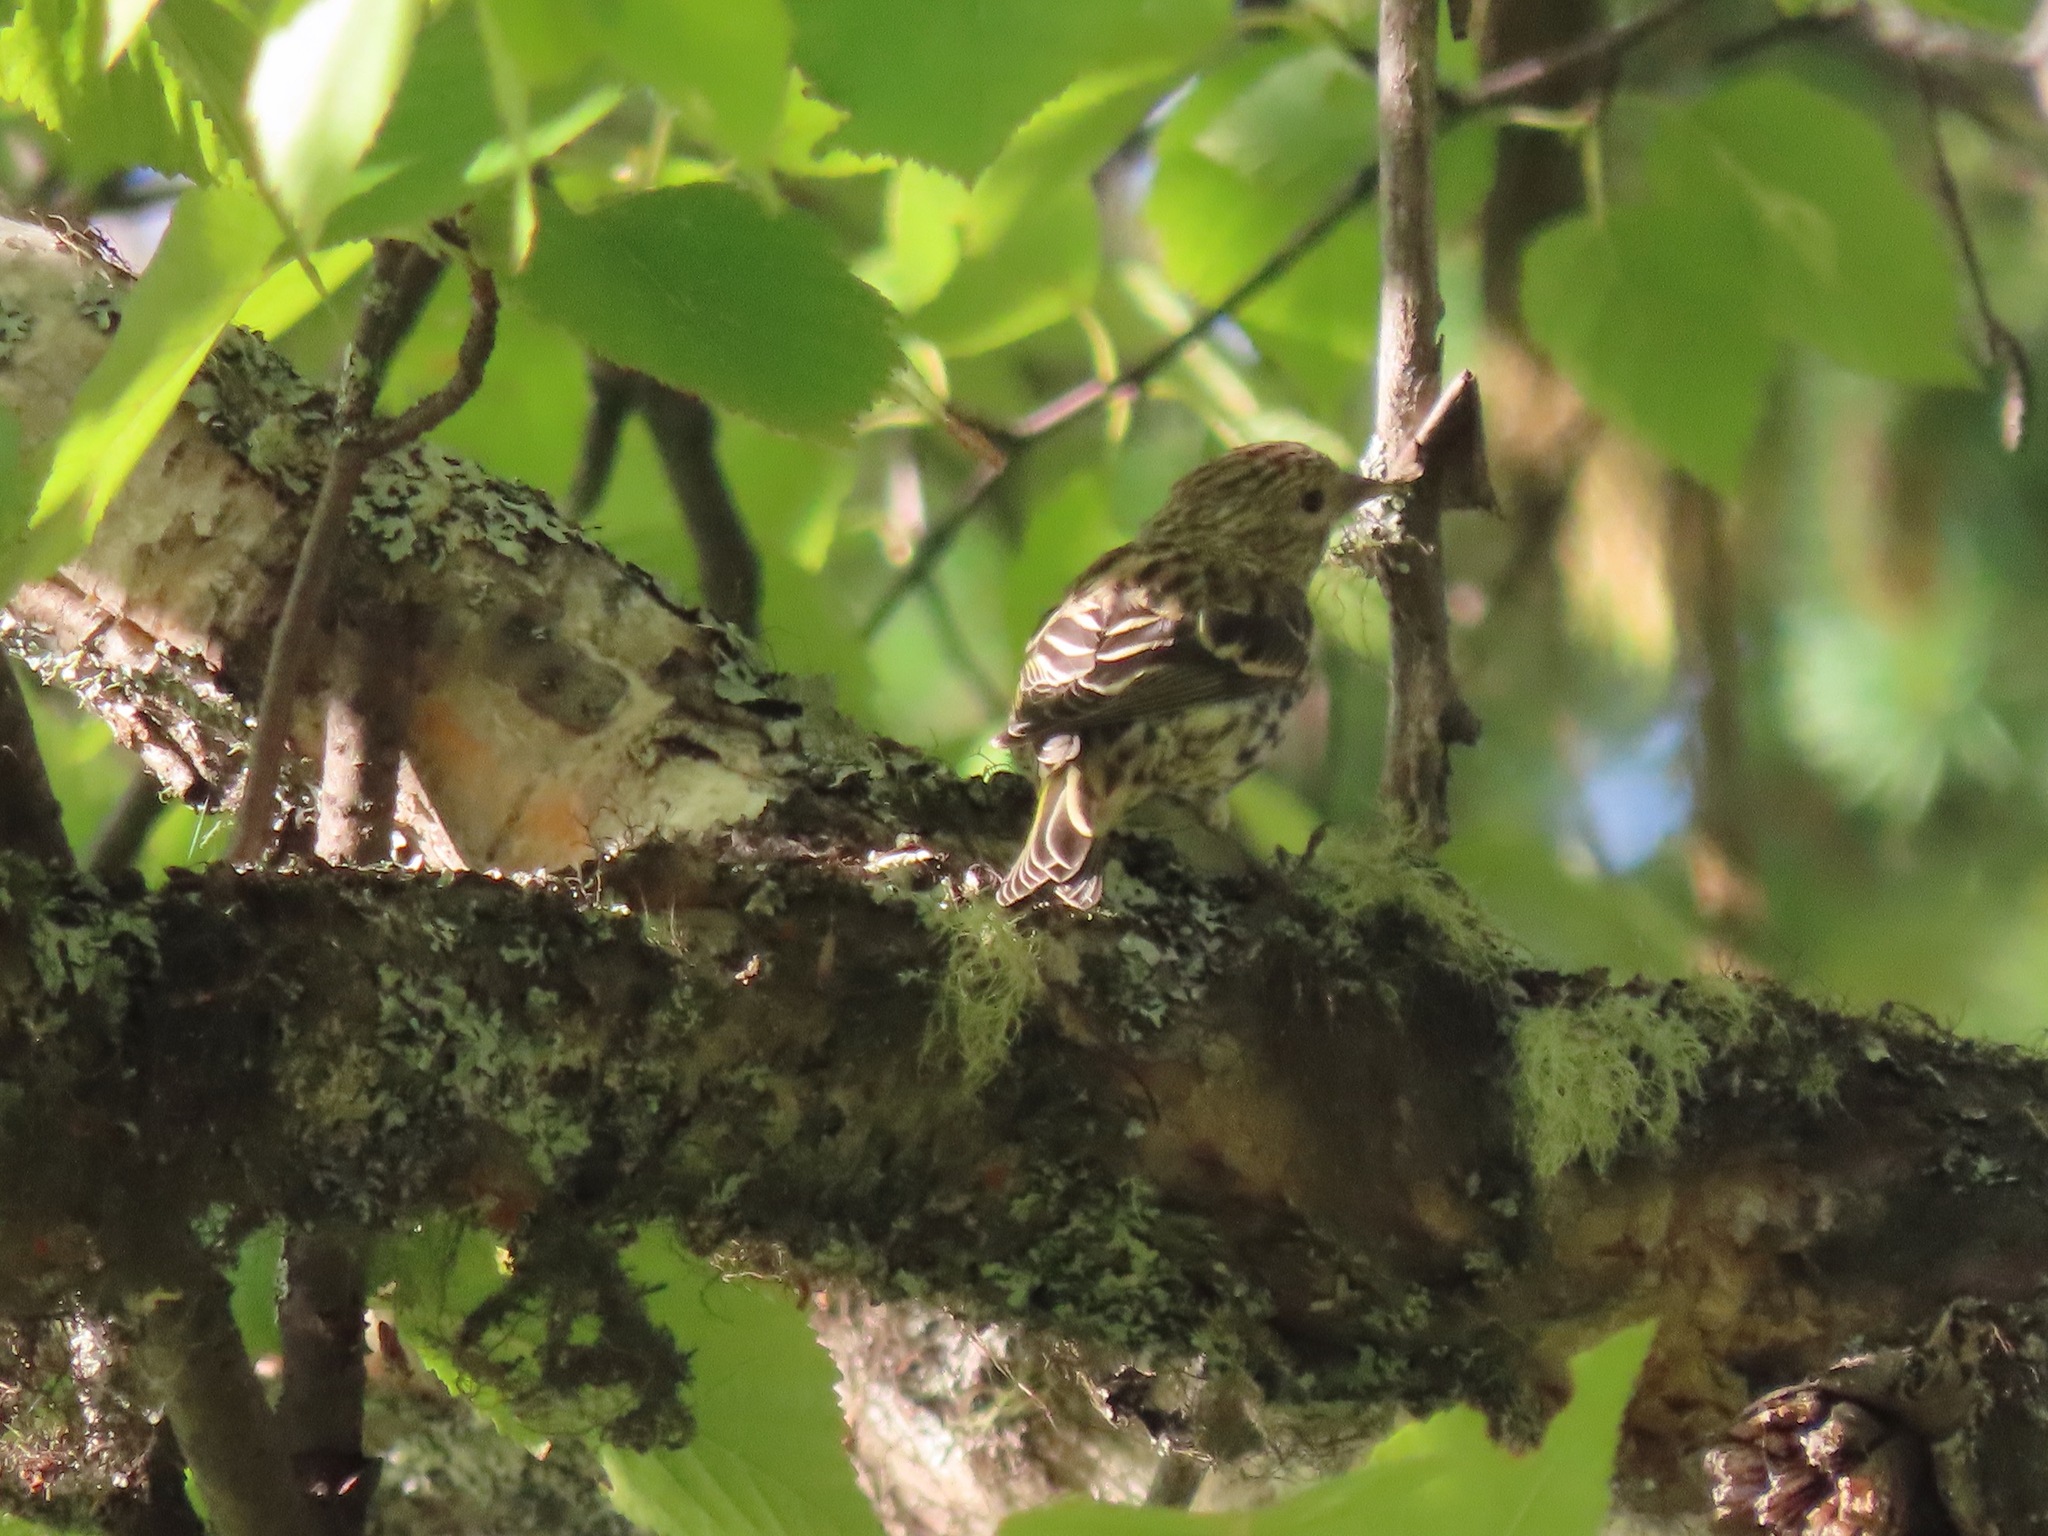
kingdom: Animalia
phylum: Chordata
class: Aves
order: Passeriformes
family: Fringillidae
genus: Spinus
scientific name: Spinus pinus
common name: Pine siskin
